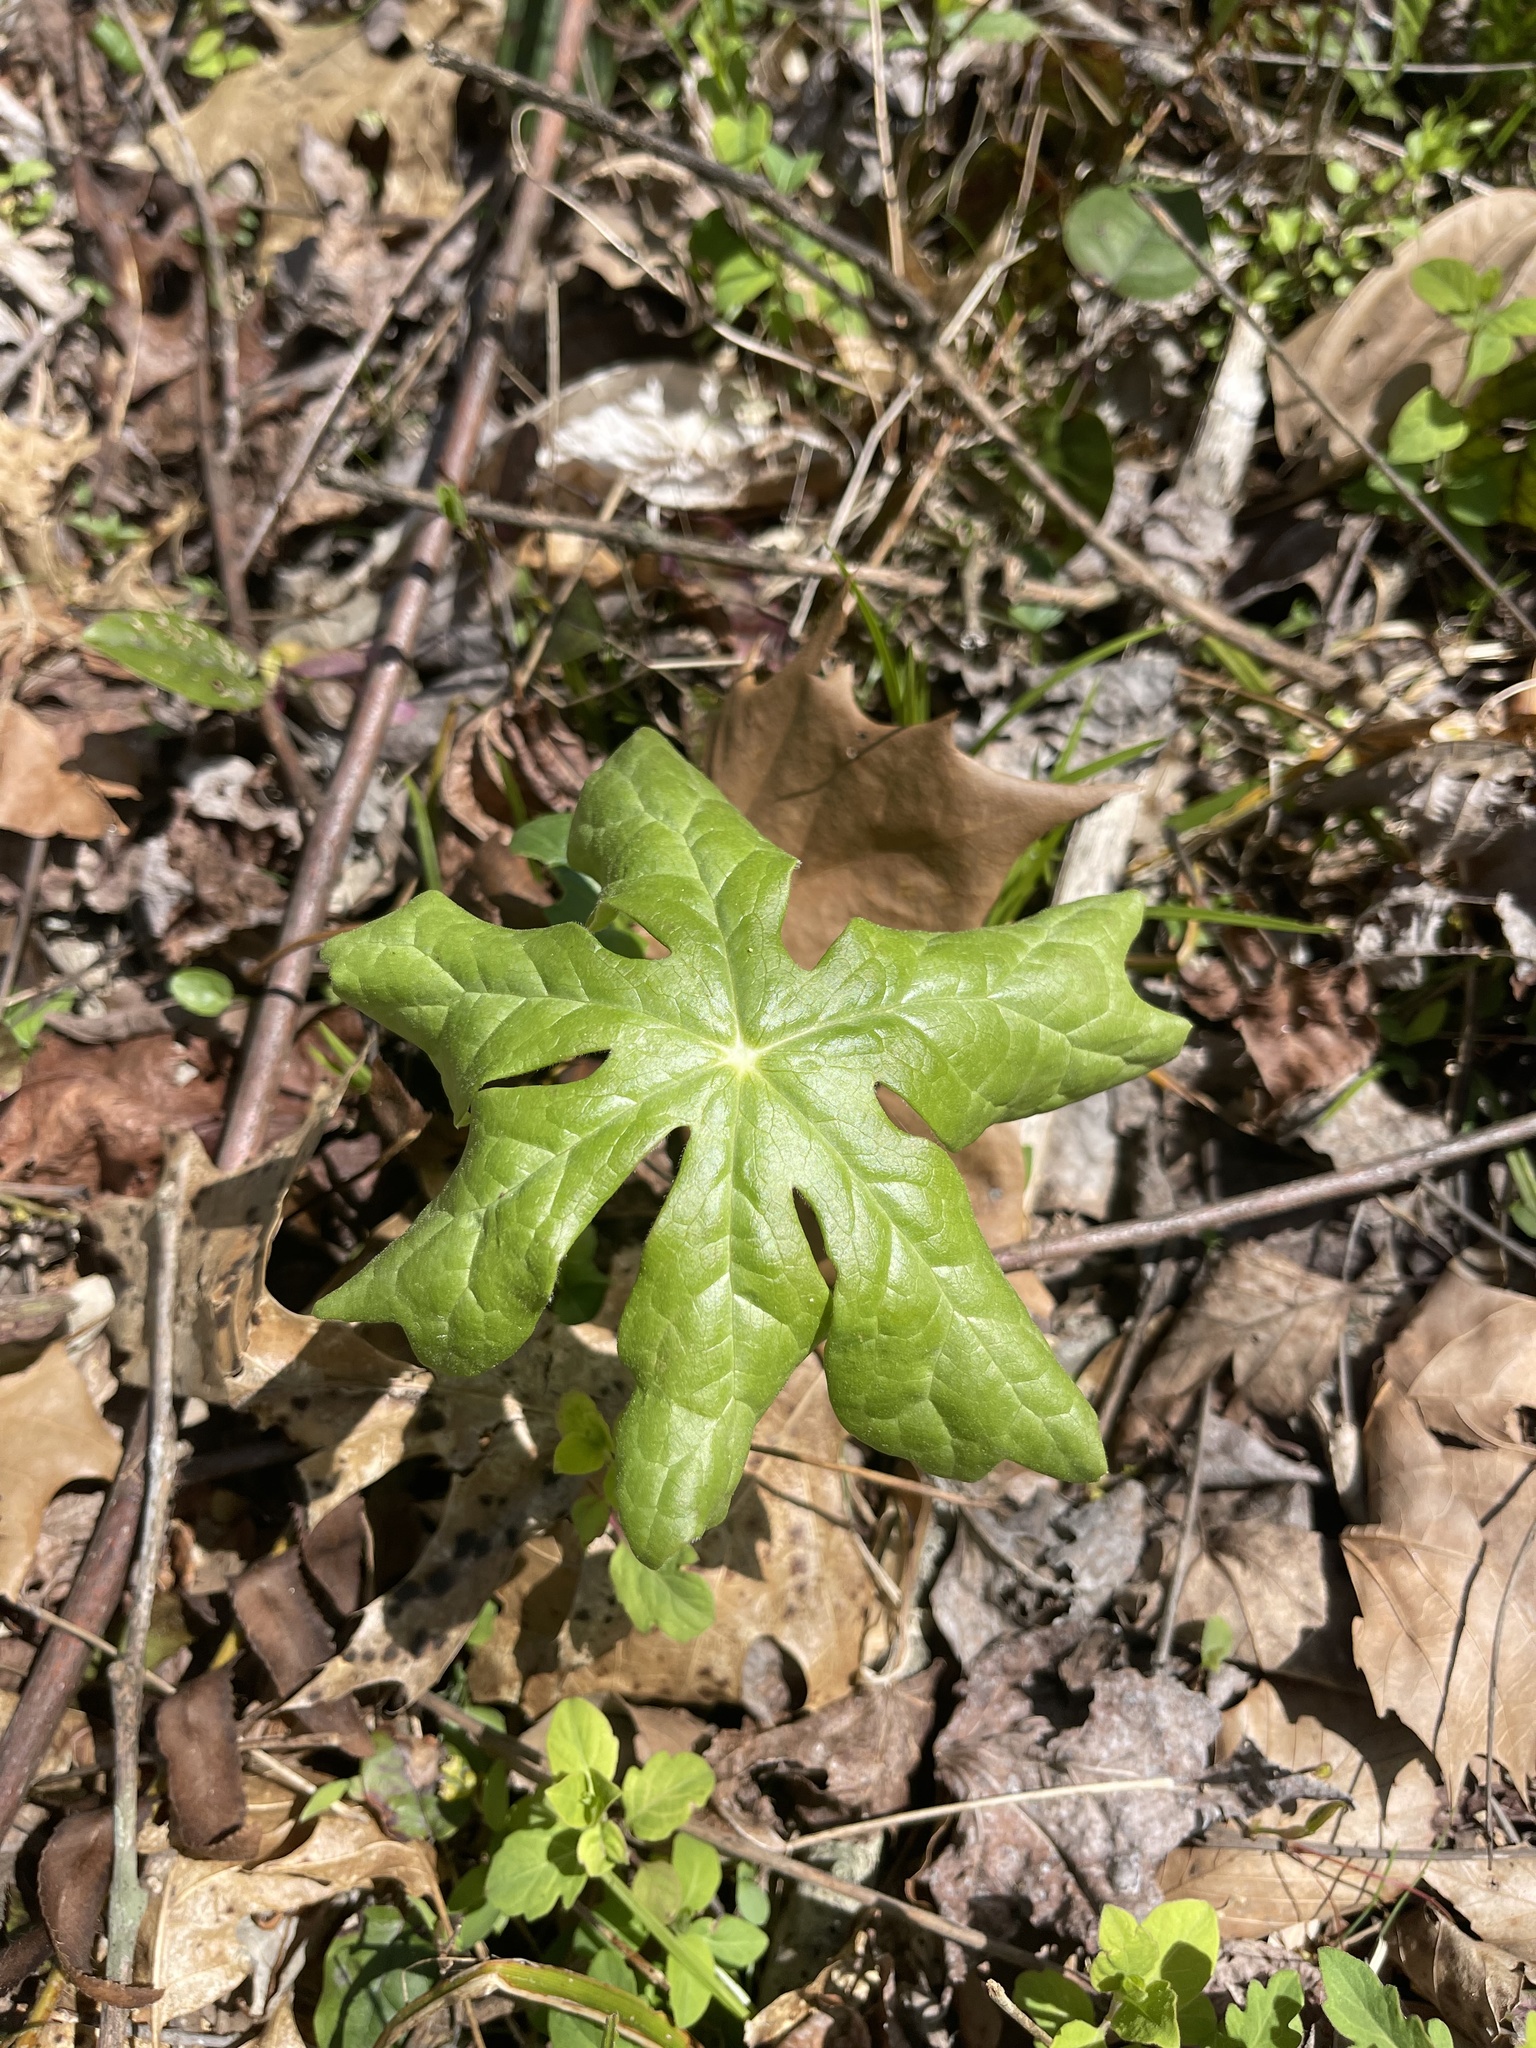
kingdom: Plantae
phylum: Tracheophyta
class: Magnoliopsida
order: Ranunculales
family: Berberidaceae
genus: Podophyllum
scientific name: Podophyllum peltatum
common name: Wild mandrake
